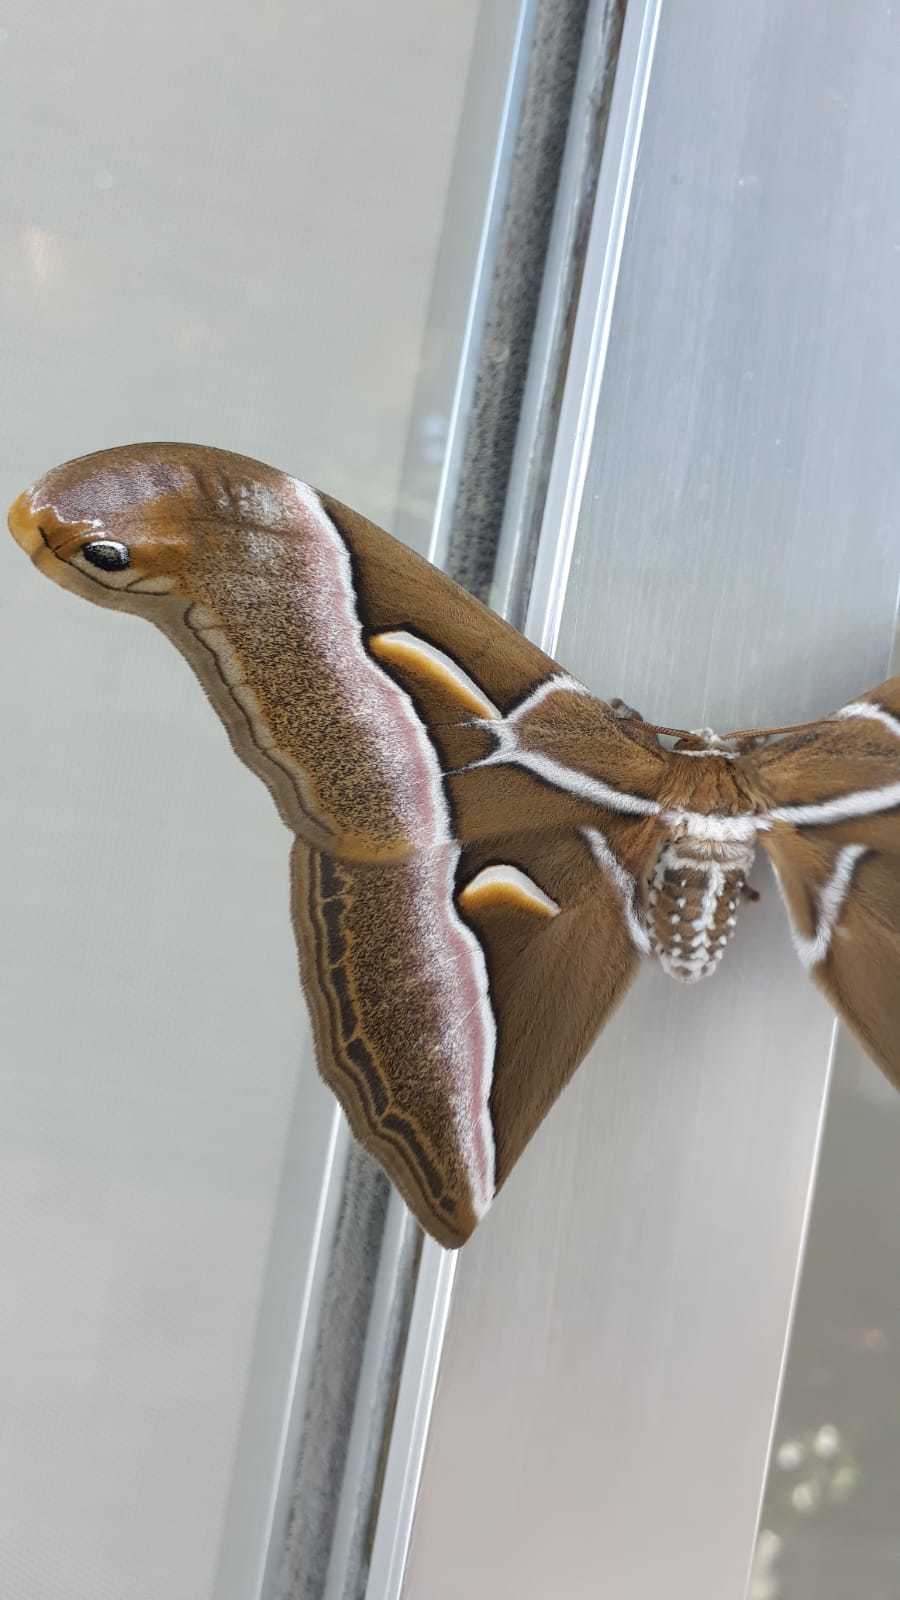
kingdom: Animalia
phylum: Arthropoda
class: Insecta
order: Lepidoptera
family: Saturniidae
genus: Samia
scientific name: Samia cynthia
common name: Ailanthus silkmoth
